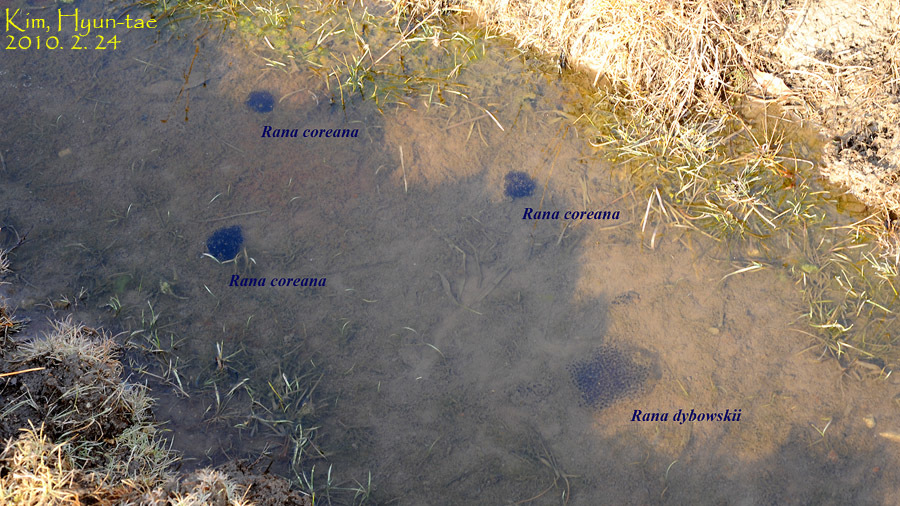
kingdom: Animalia
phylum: Chordata
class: Amphibia
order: Anura
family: Ranidae
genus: Rana
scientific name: Rana coreana
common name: Korean brown frog
